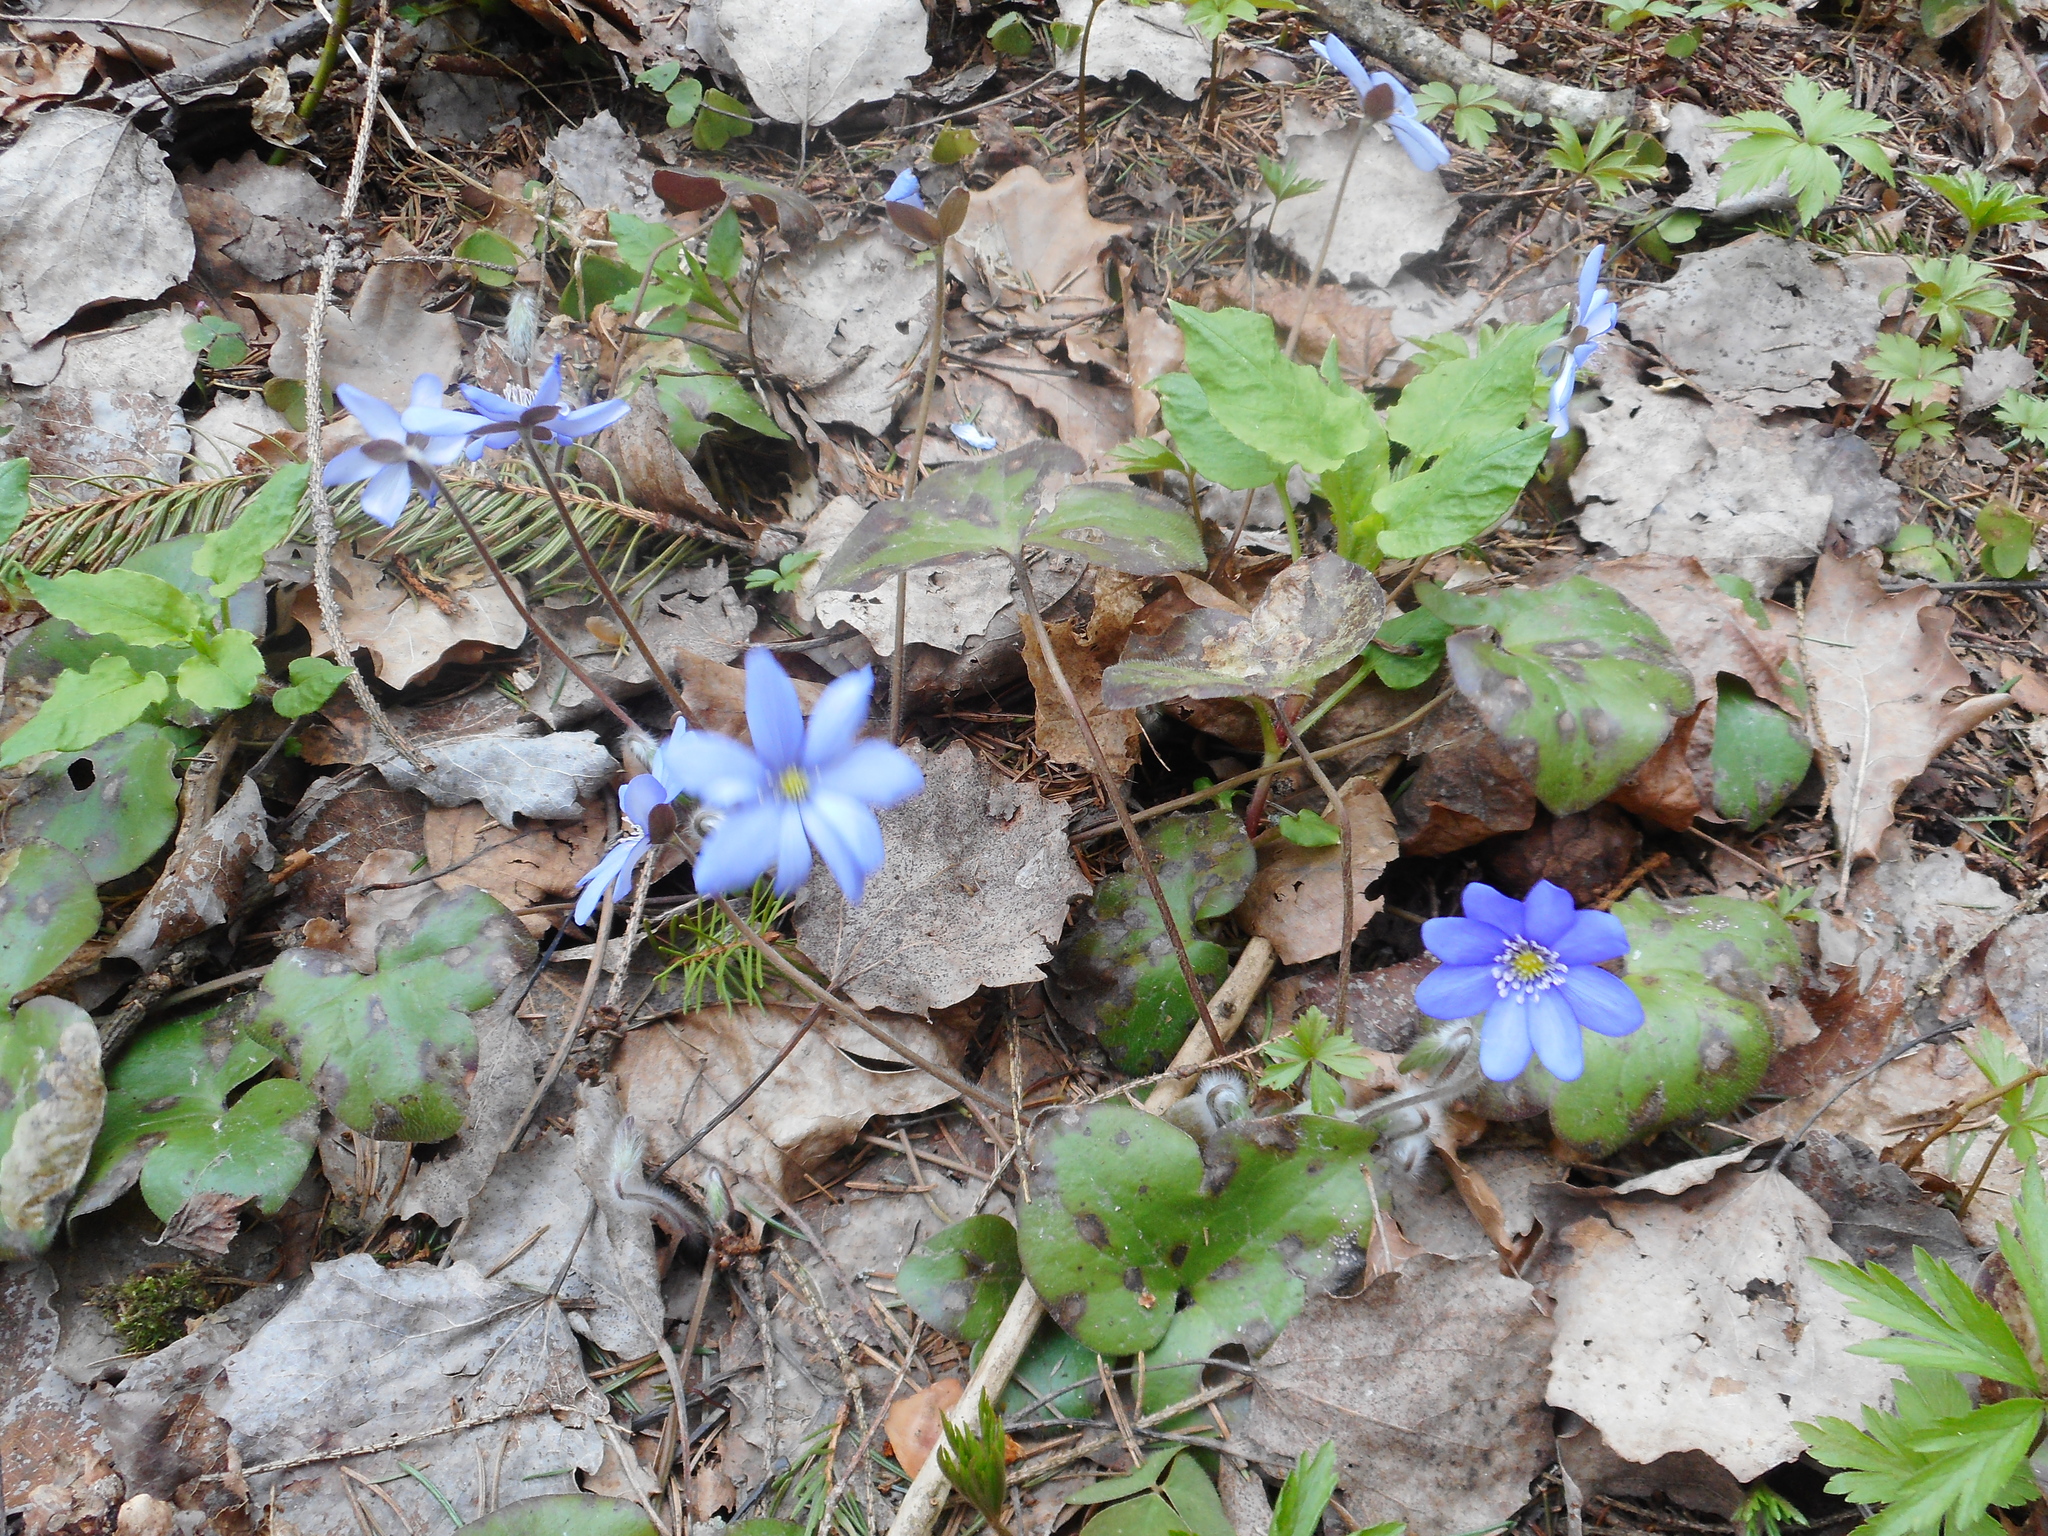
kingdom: Plantae
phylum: Tracheophyta
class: Magnoliopsida
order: Ranunculales
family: Ranunculaceae
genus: Hepatica
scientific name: Hepatica nobilis
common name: Liverleaf
